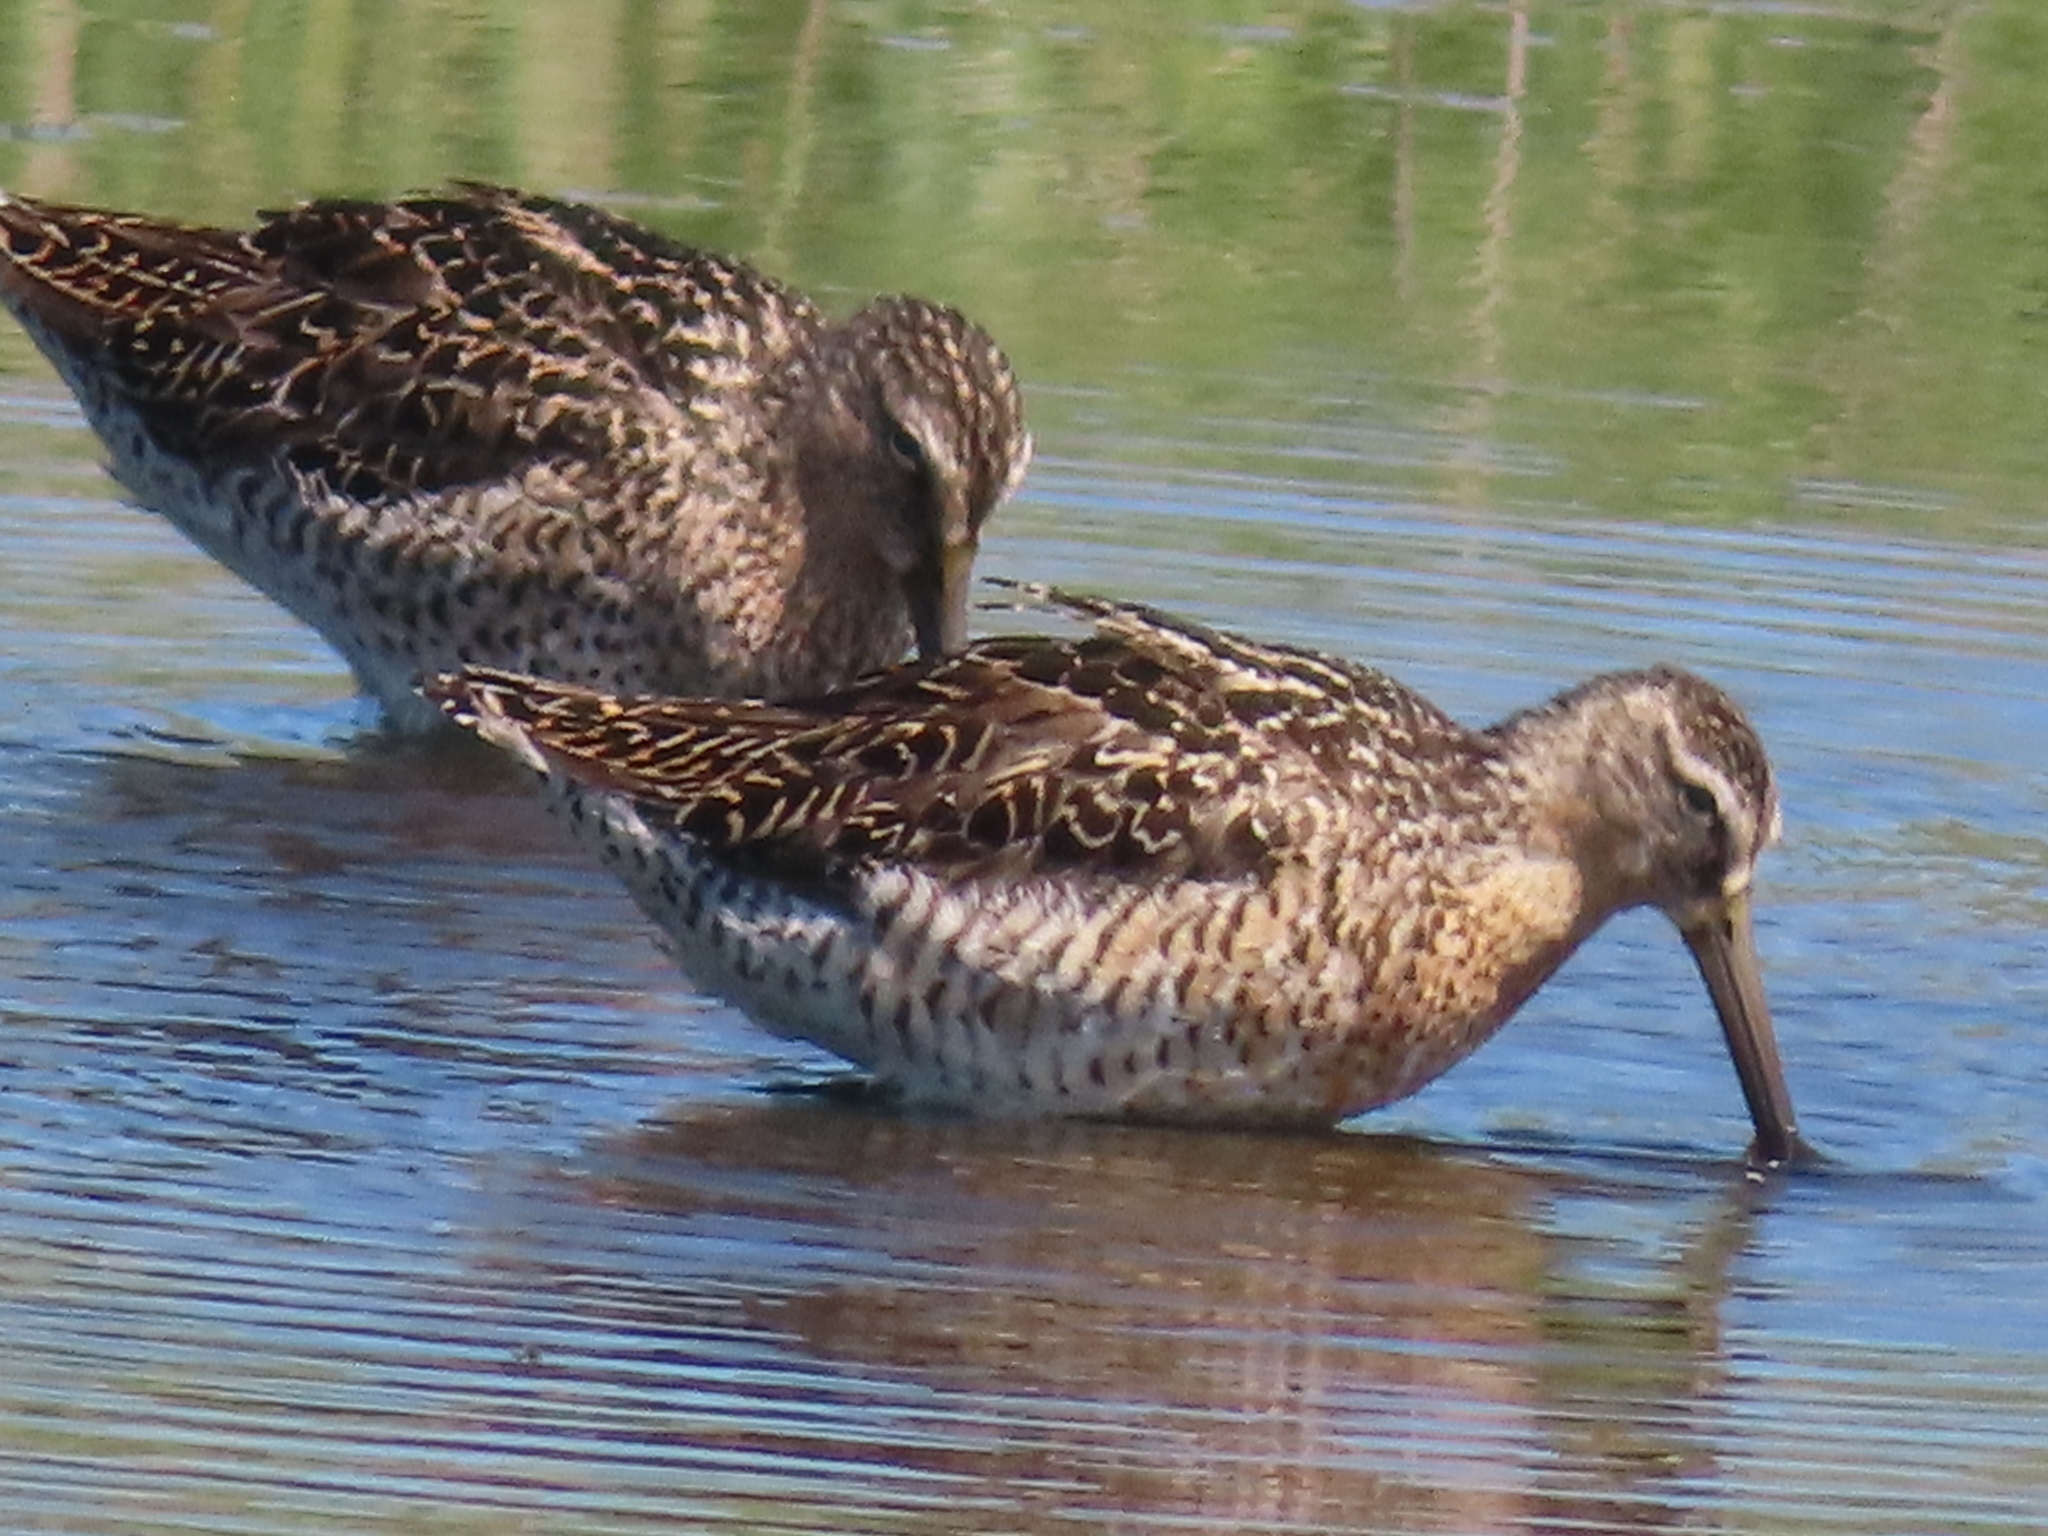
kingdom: Animalia
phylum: Chordata
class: Aves
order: Charadriiformes
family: Scolopacidae
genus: Limnodromus
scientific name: Limnodromus griseus
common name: Short-billed dowitcher
